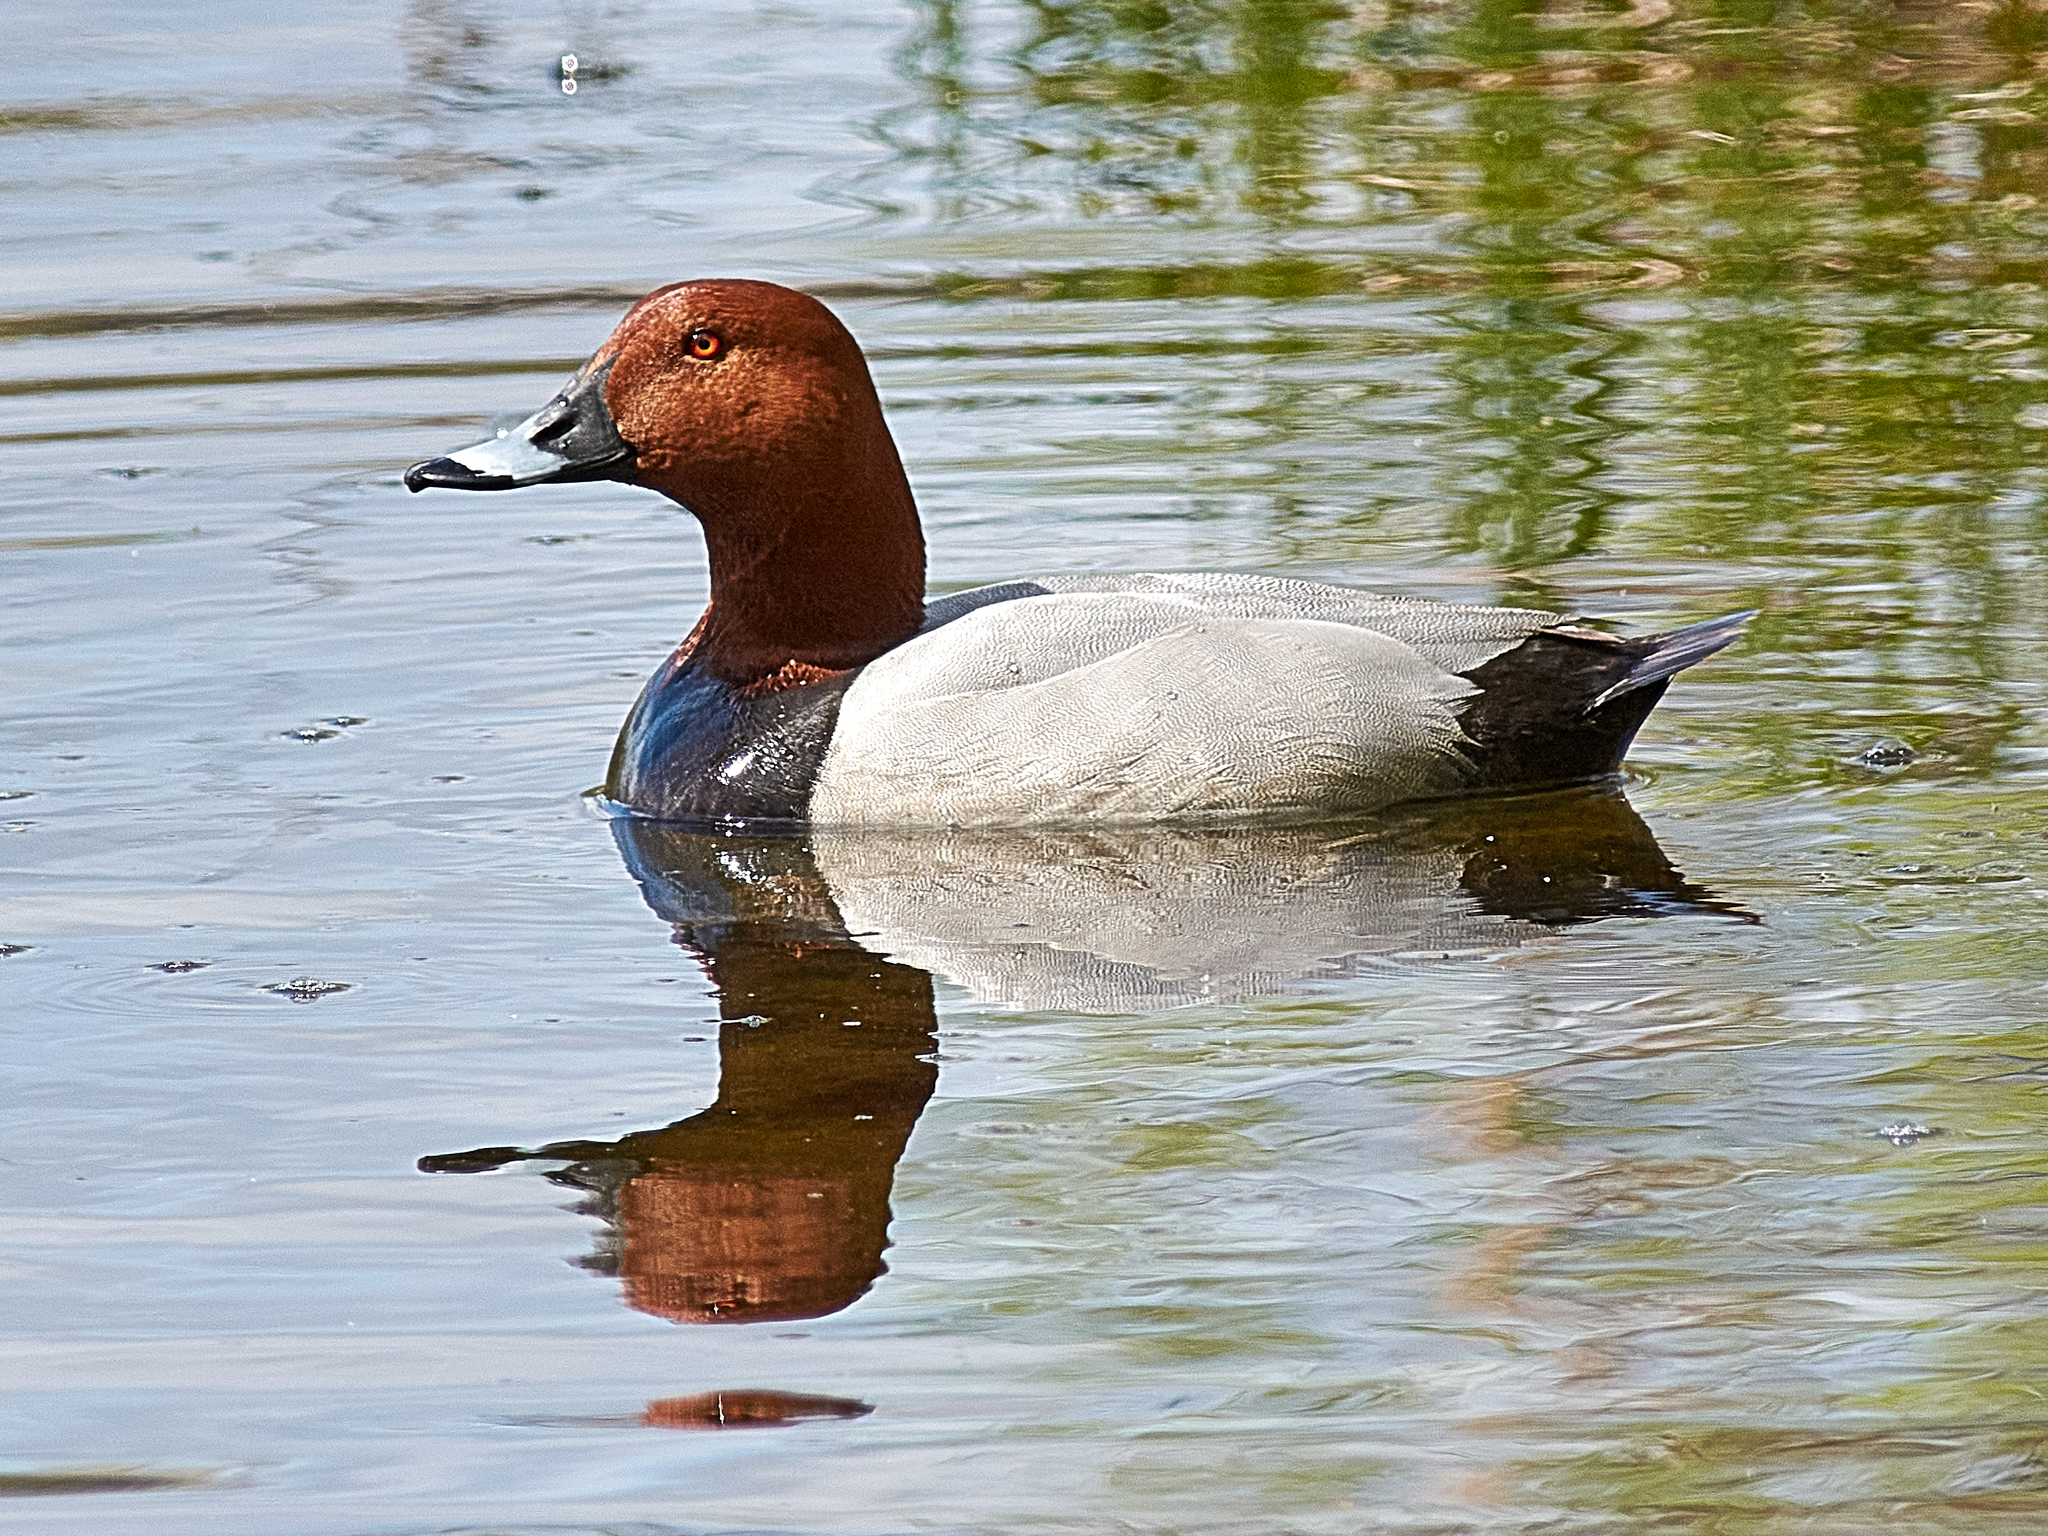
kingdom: Animalia
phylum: Chordata
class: Aves
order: Anseriformes
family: Anatidae
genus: Aythya
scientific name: Aythya ferina
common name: Common pochard
